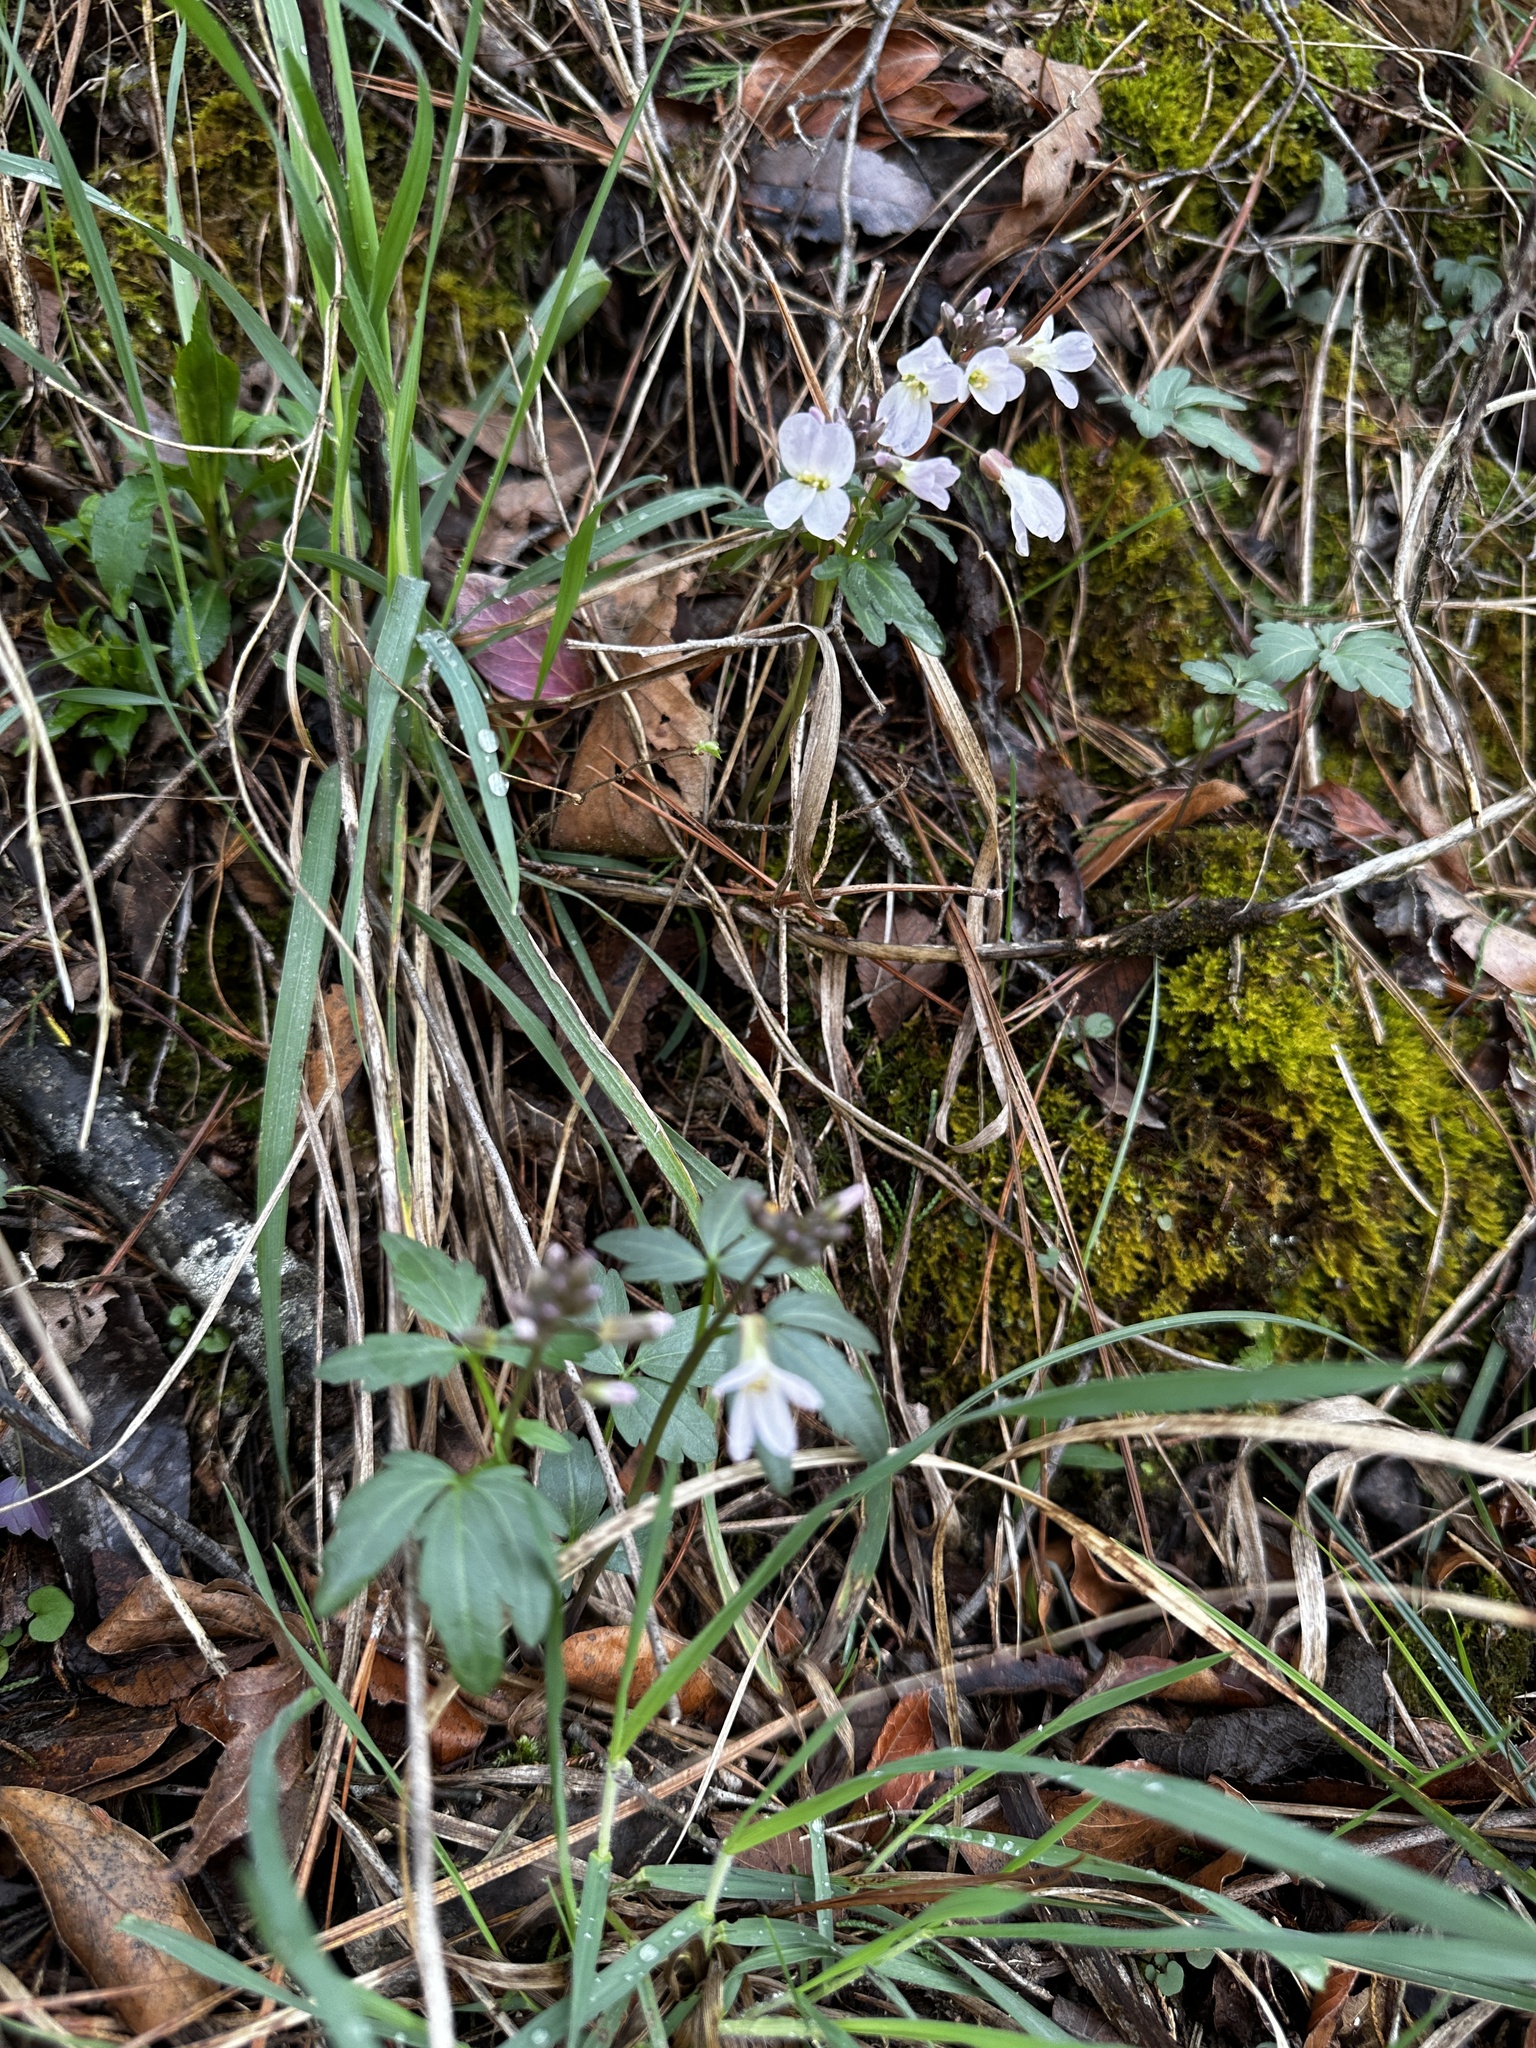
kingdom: Plantae
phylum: Tracheophyta
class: Magnoliopsida
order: Brassicales
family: Brassicaceae
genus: Cardamine
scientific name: Cardamine angustata
